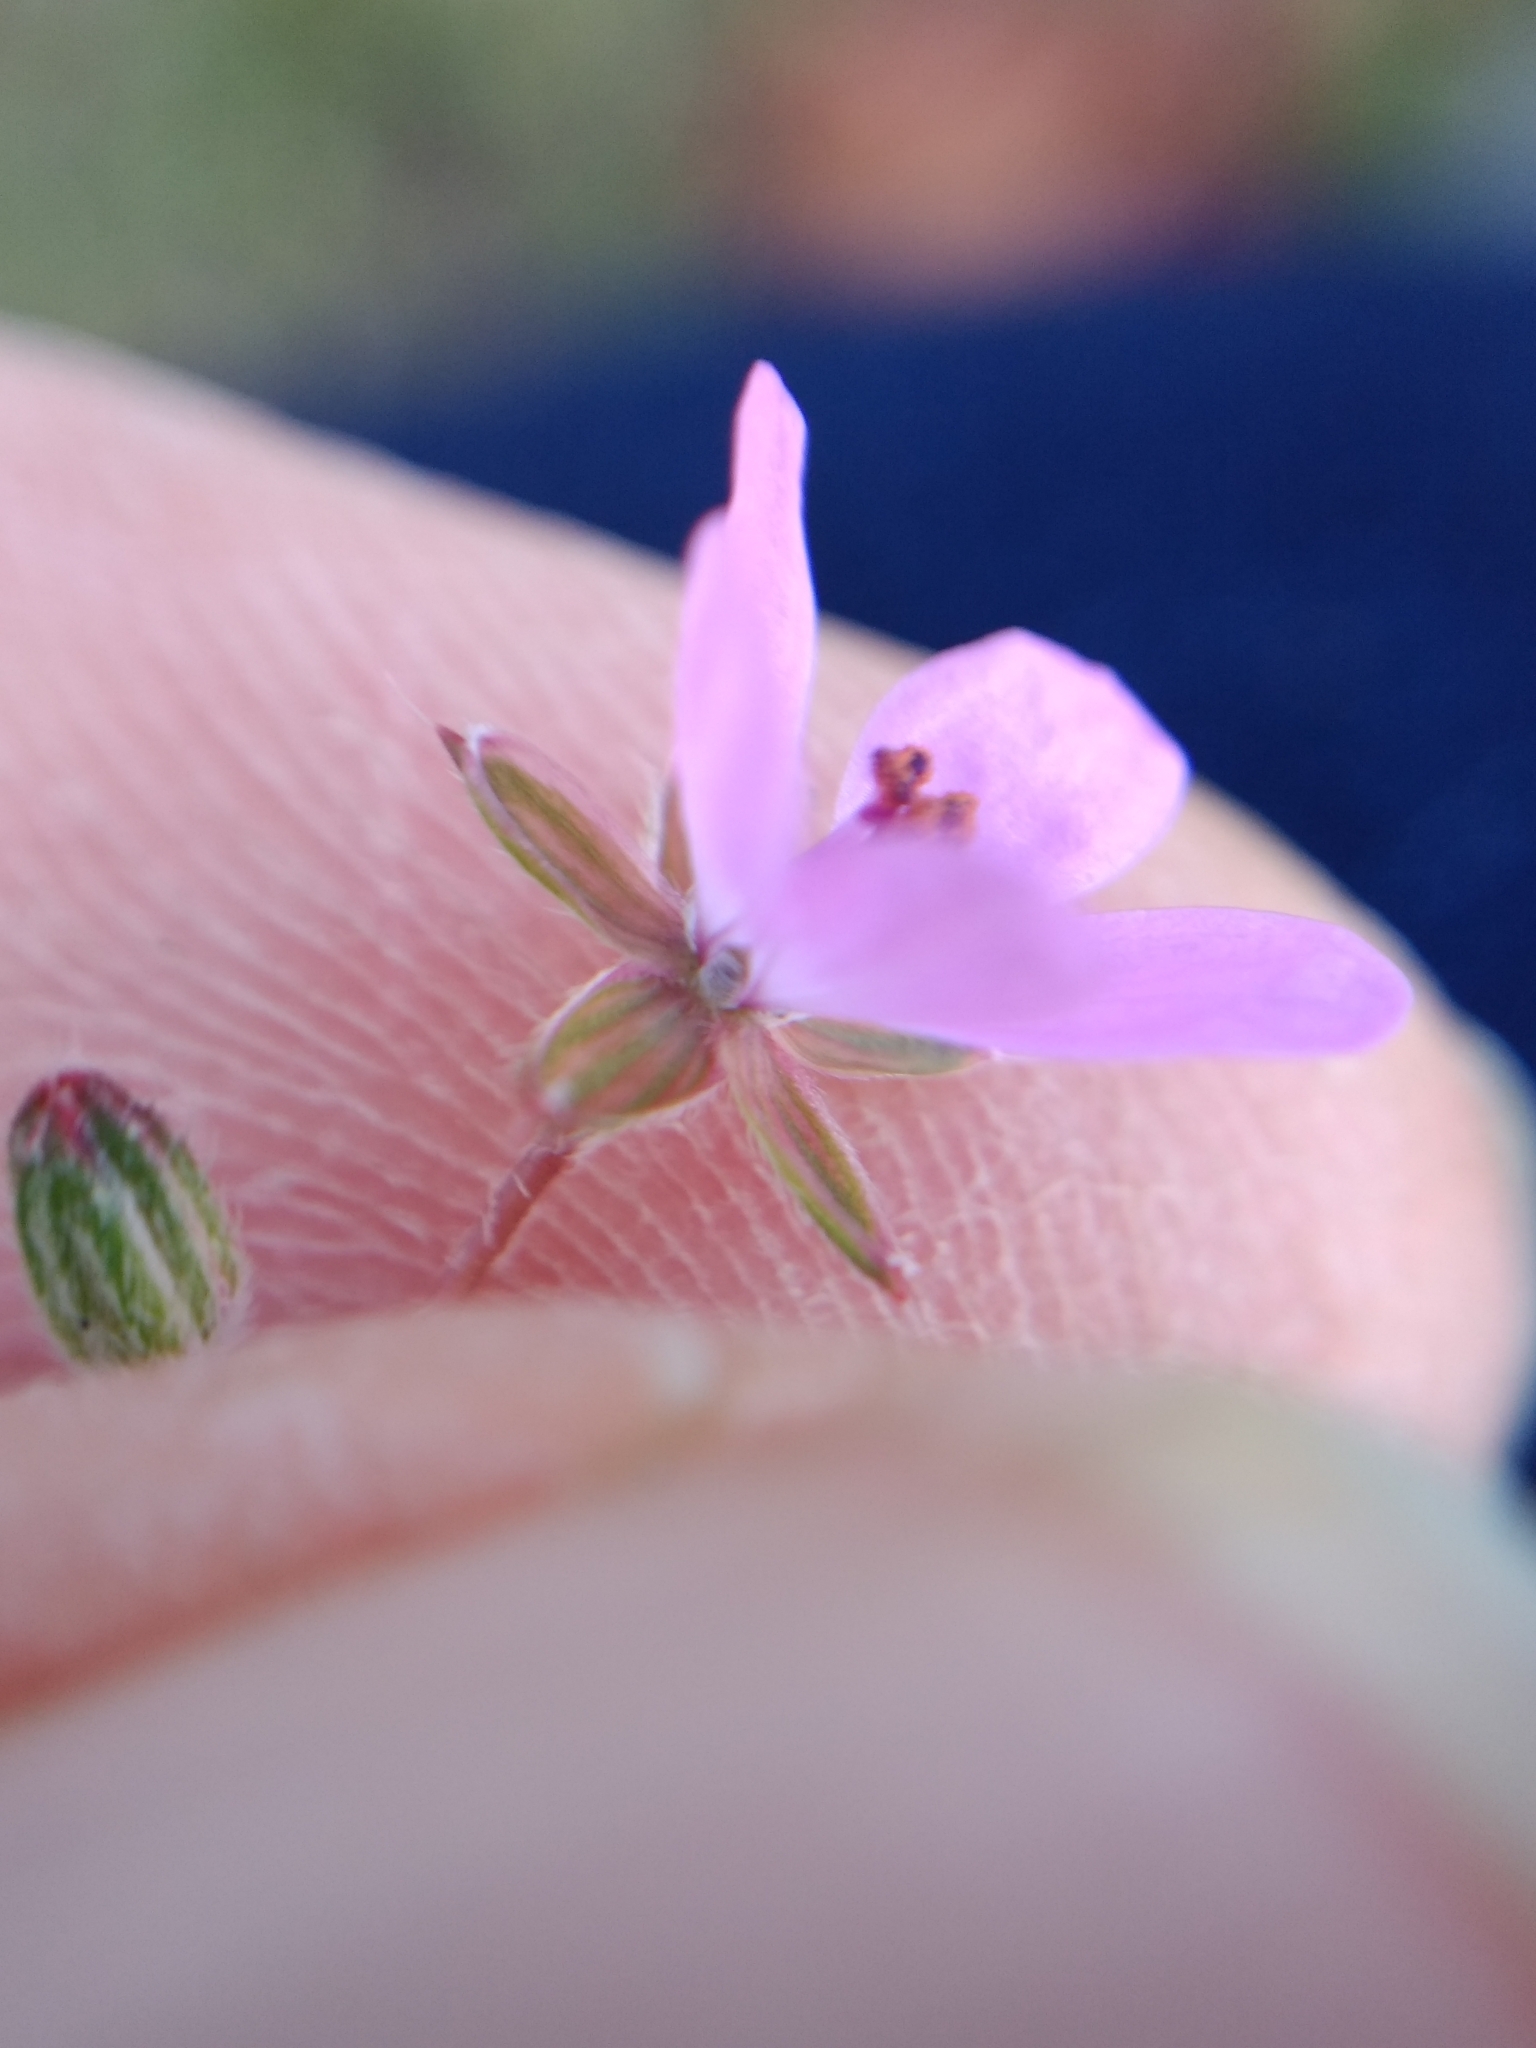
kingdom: Plantae
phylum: Tracheophyta
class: Magnoliopsida
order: Geraniales
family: Geraniaceae
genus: Erodium
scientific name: Erodium cicutarium
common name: Common stork's-bill
